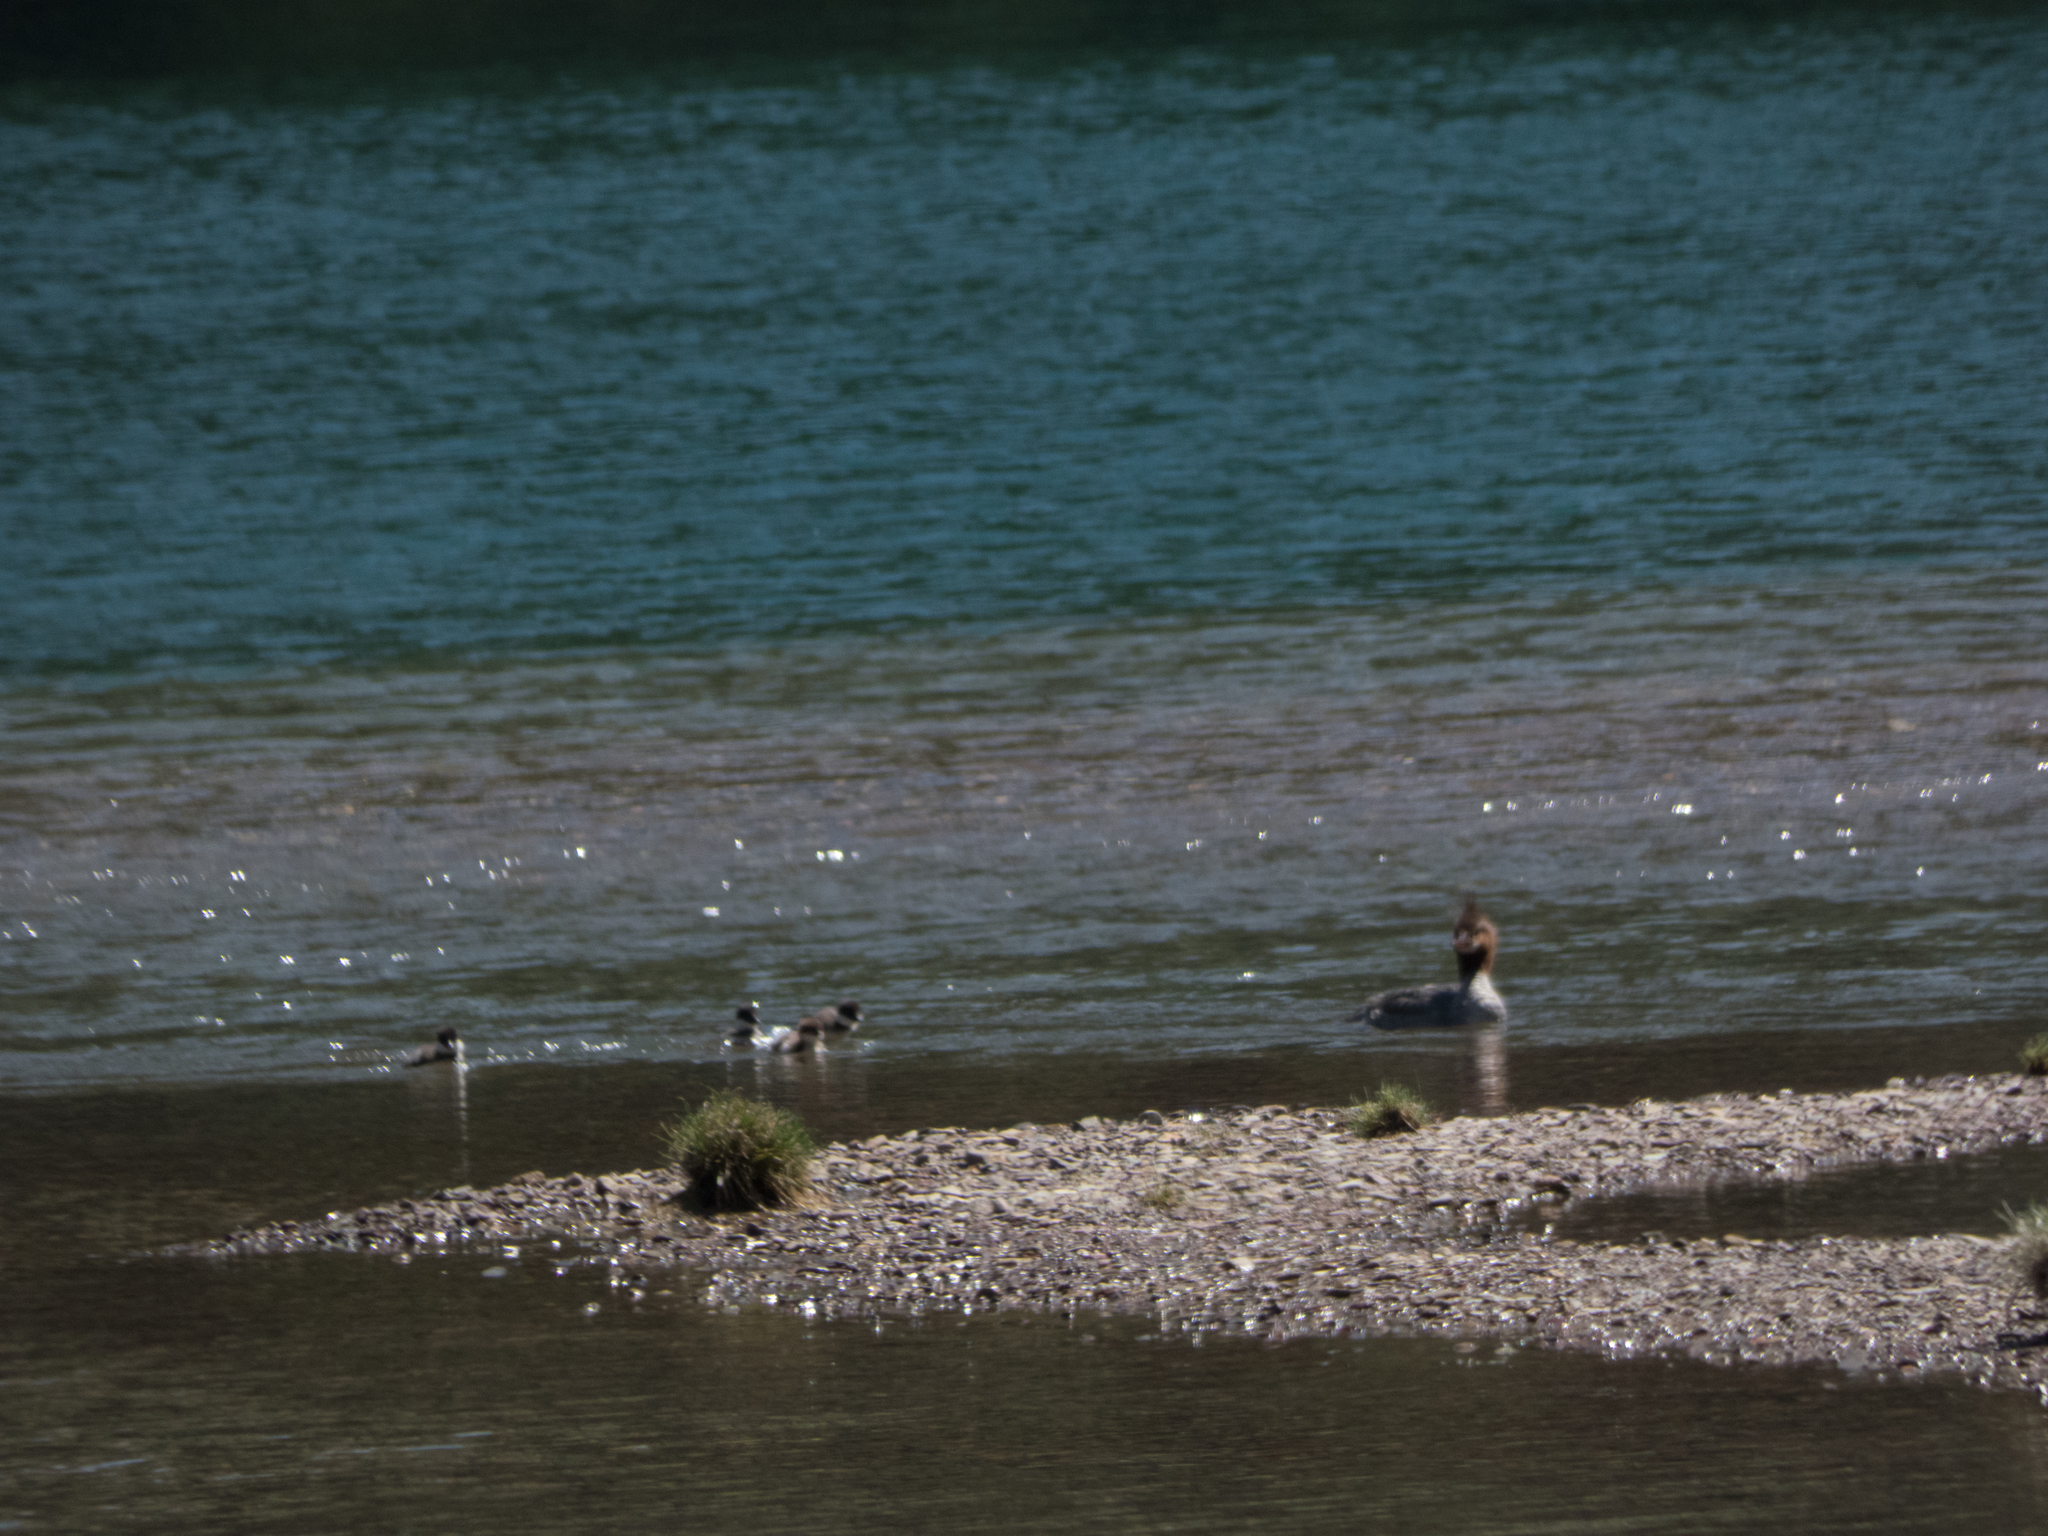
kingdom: Animalia
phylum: Chordata
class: Aves
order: Anseriformes
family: Anatidae
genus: Mergus
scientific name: Mergus merganser
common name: Common merganser
